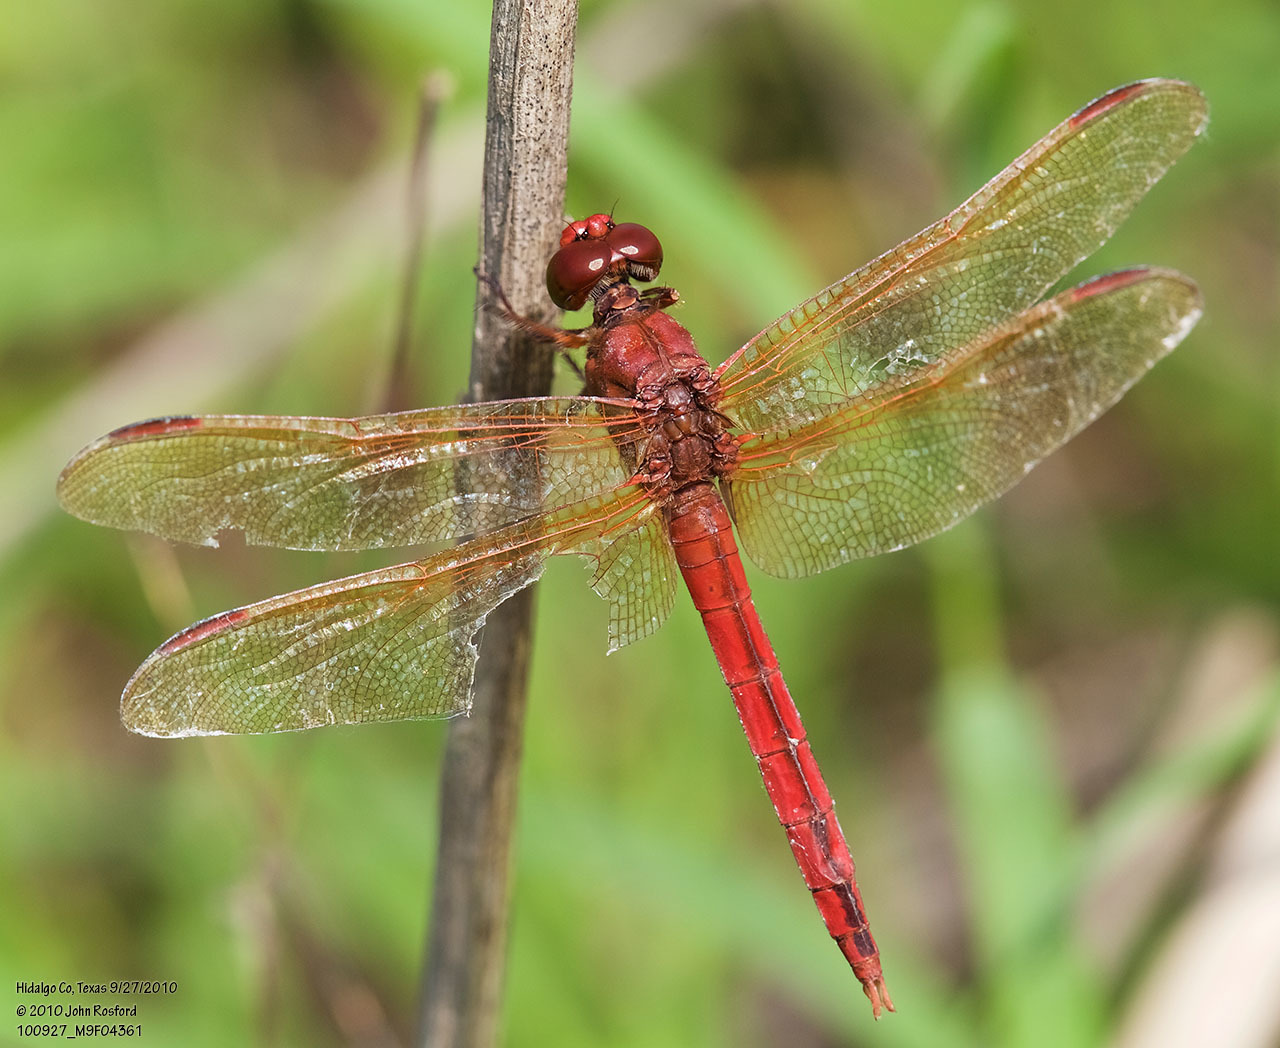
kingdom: Animalia
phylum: Arthropoda
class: Insecta
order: Odonata
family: Libellulidae
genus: Libellula
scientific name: Libellula needhami
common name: Needham's skimmer
